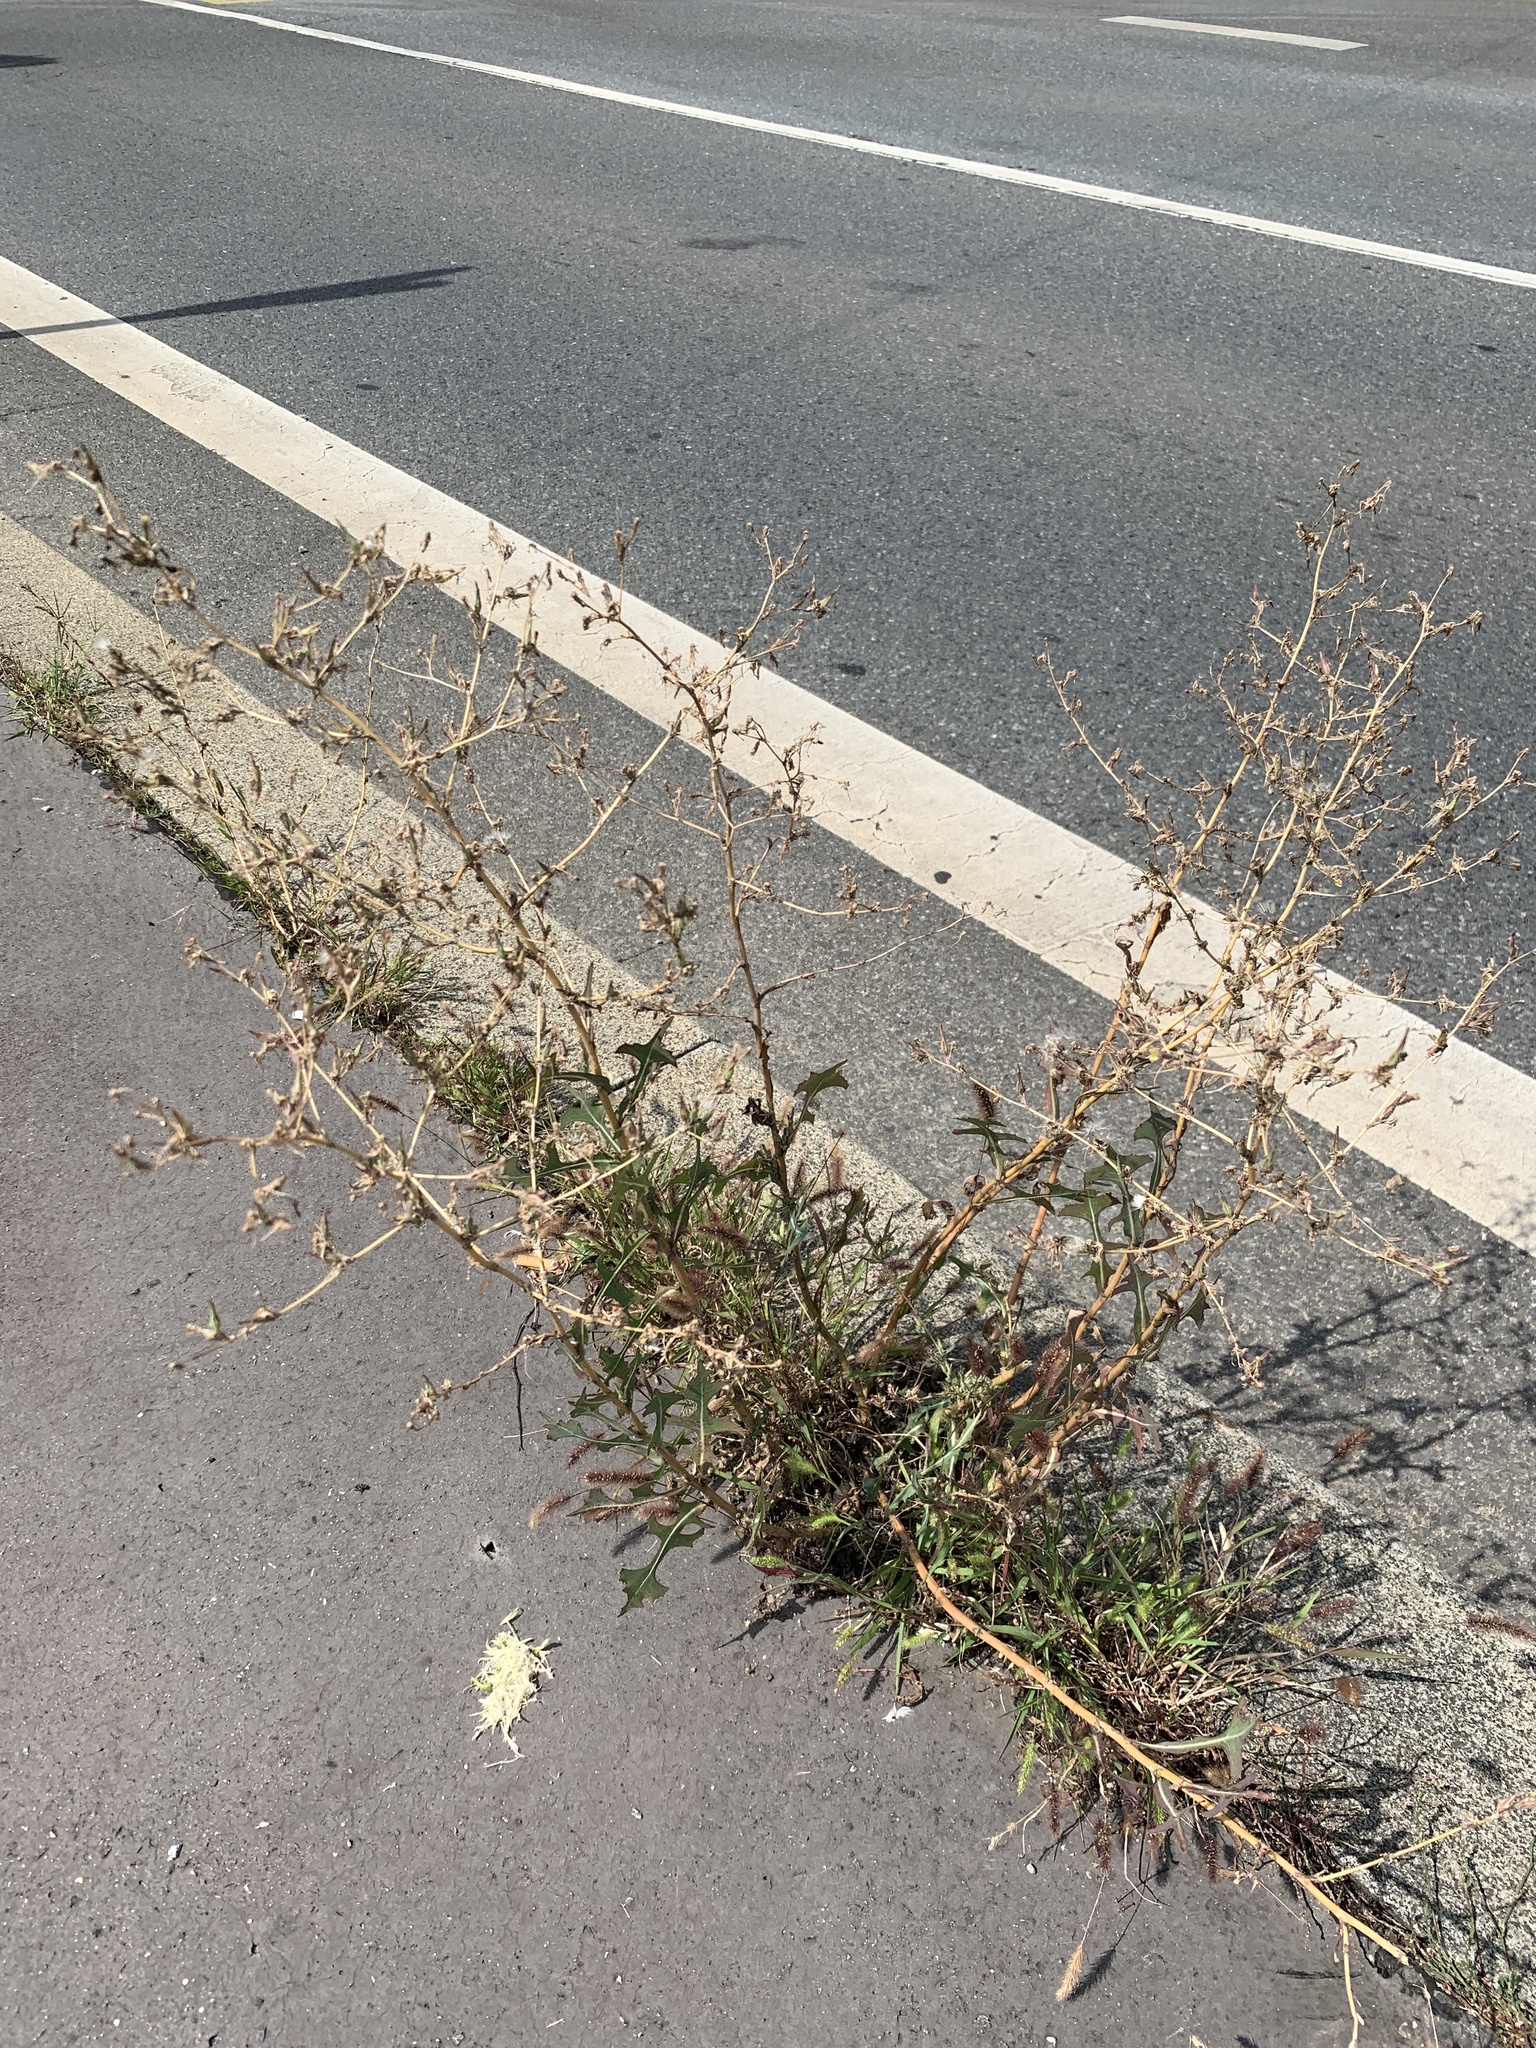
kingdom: Plantae
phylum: Tracheophyta
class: Magnoliopsida
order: Asterales
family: Asteraceae
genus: Lactuca
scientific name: Lactuca serriola
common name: Prickly lettuce
